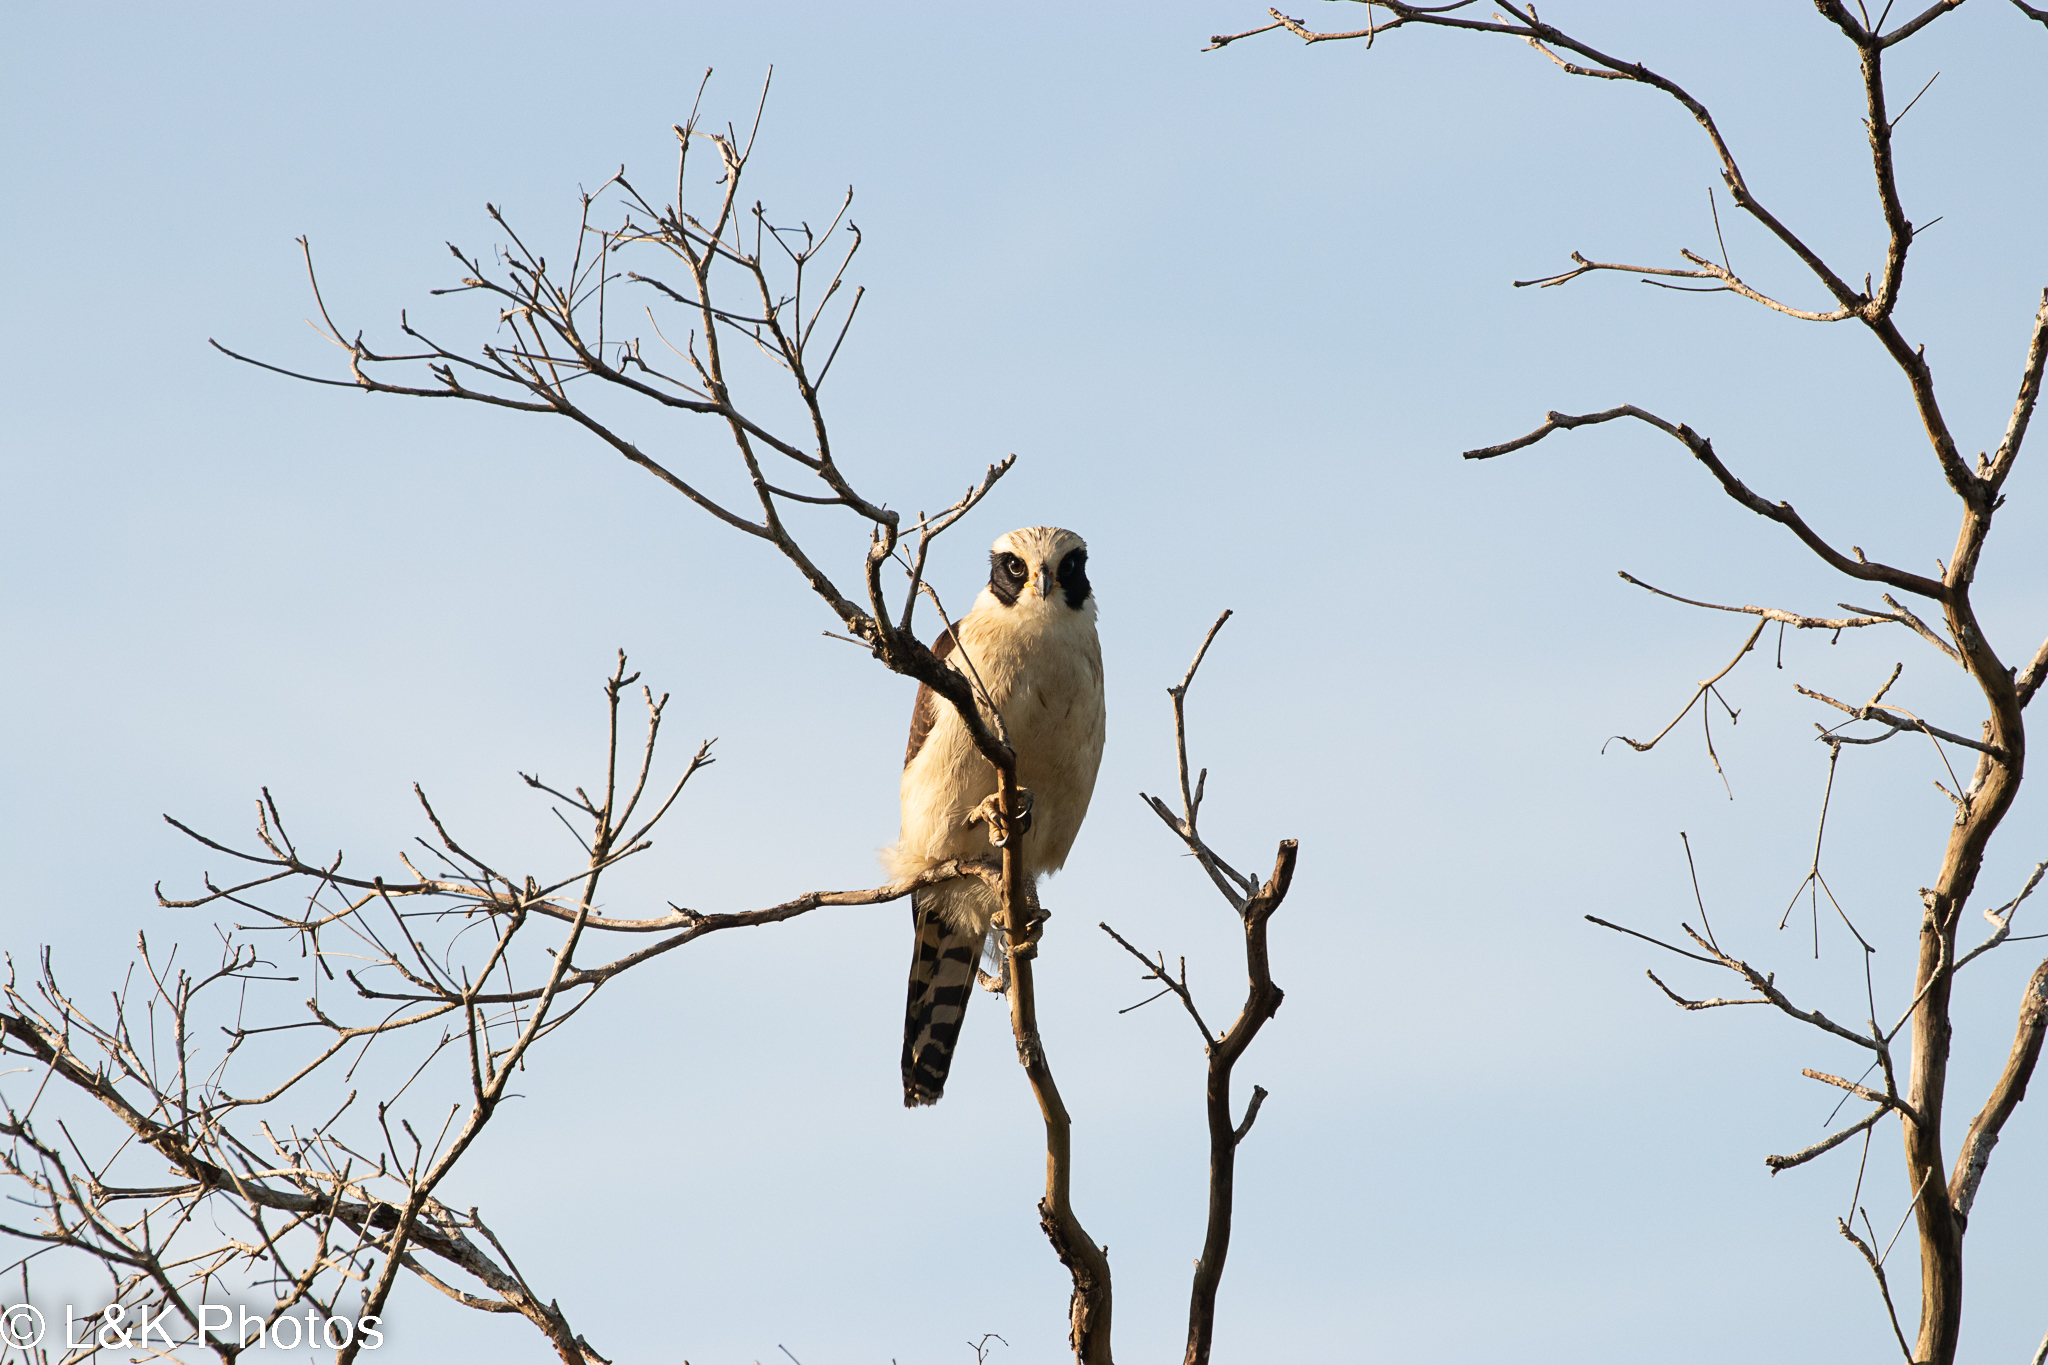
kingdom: Animalia
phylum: Chordata
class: Aves
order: Falconiformes
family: Falconidae
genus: Herpetotheres
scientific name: Herpetotheres cachinnans
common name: Laughing falcon
